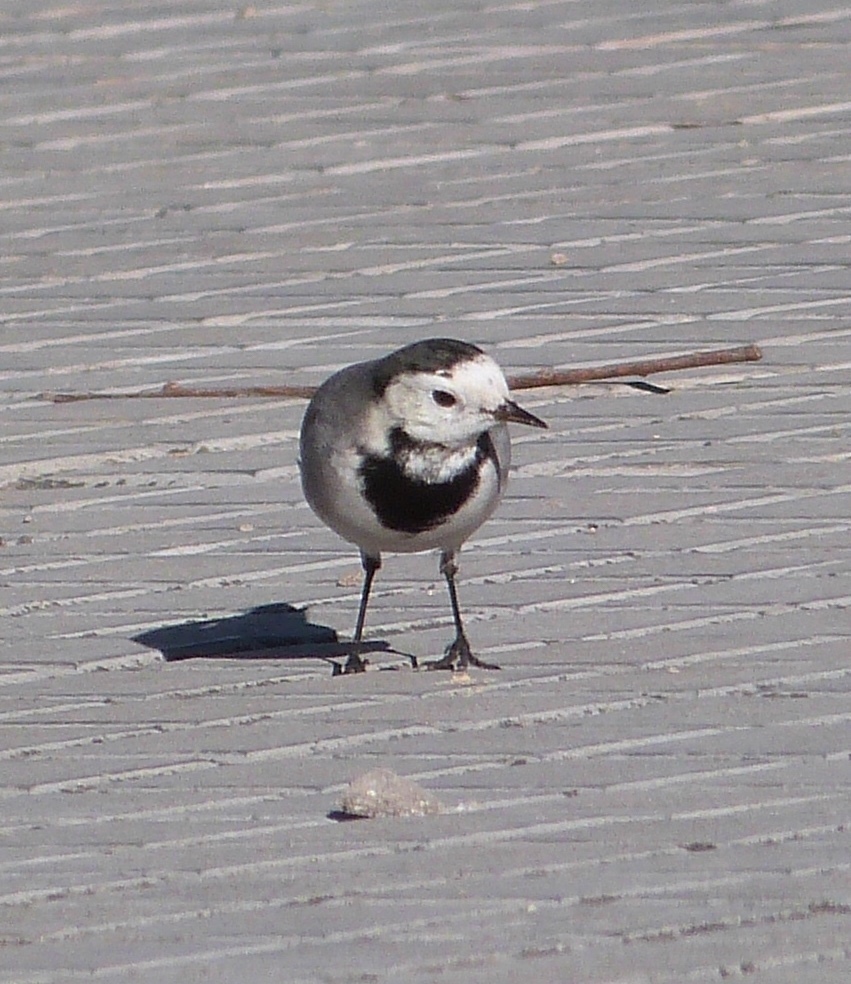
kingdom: Animalia
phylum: Chordata
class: Aves
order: Passeriformes
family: Motacillidae
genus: Motacilla
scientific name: Motacilla alba
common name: White wagtail
